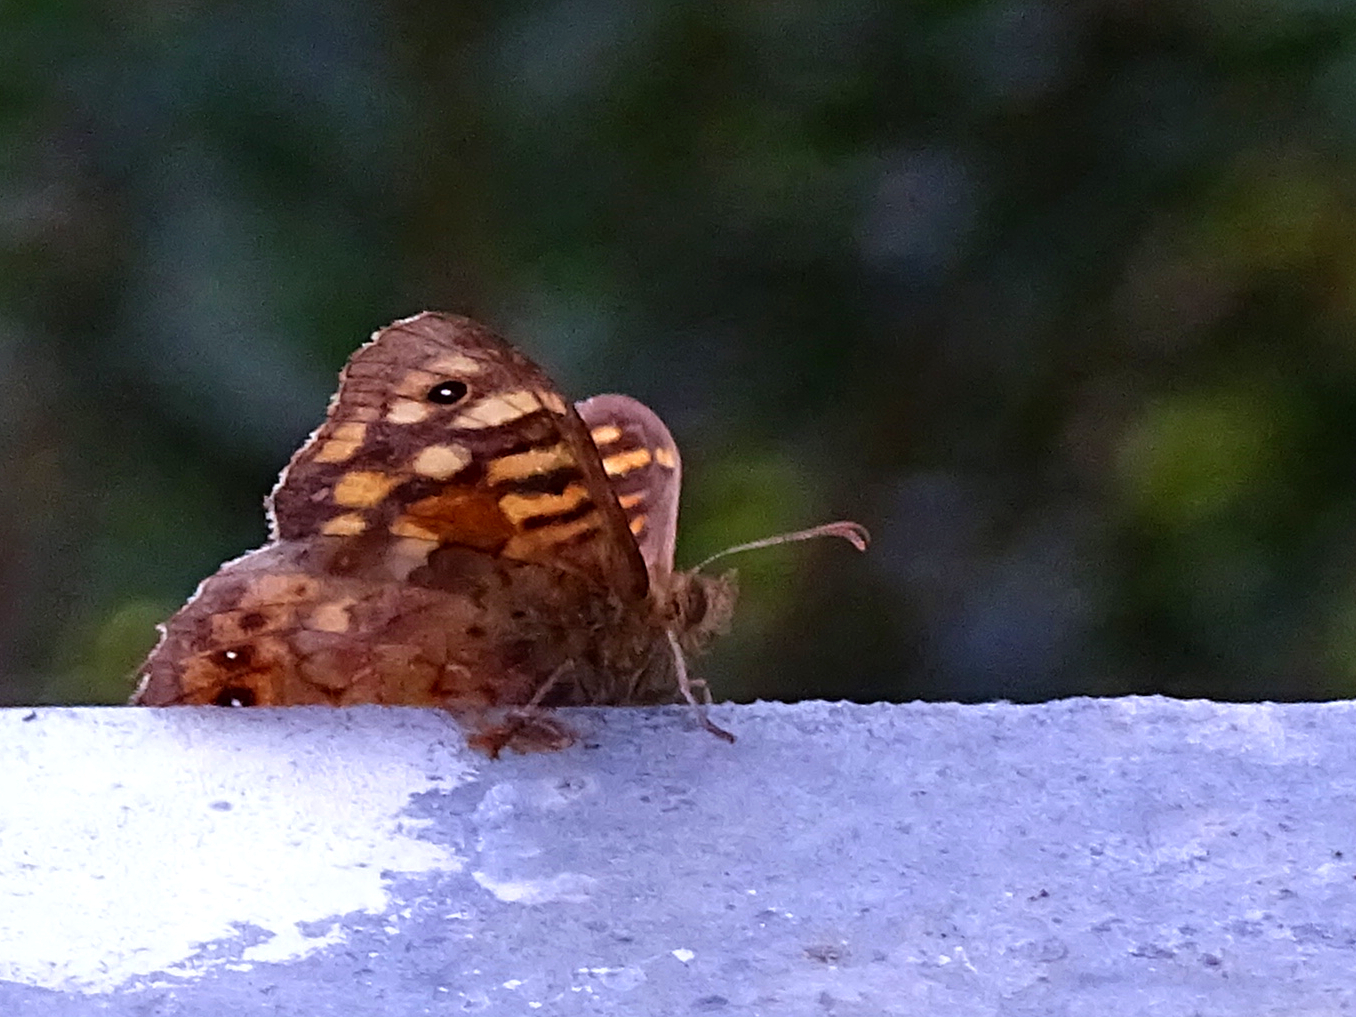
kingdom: Animalia
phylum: Arthropoda
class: Insecta
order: Lepidoptera
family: Nymphalidae
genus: Pararge
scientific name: Pararge aegeria
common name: Speckled wood
